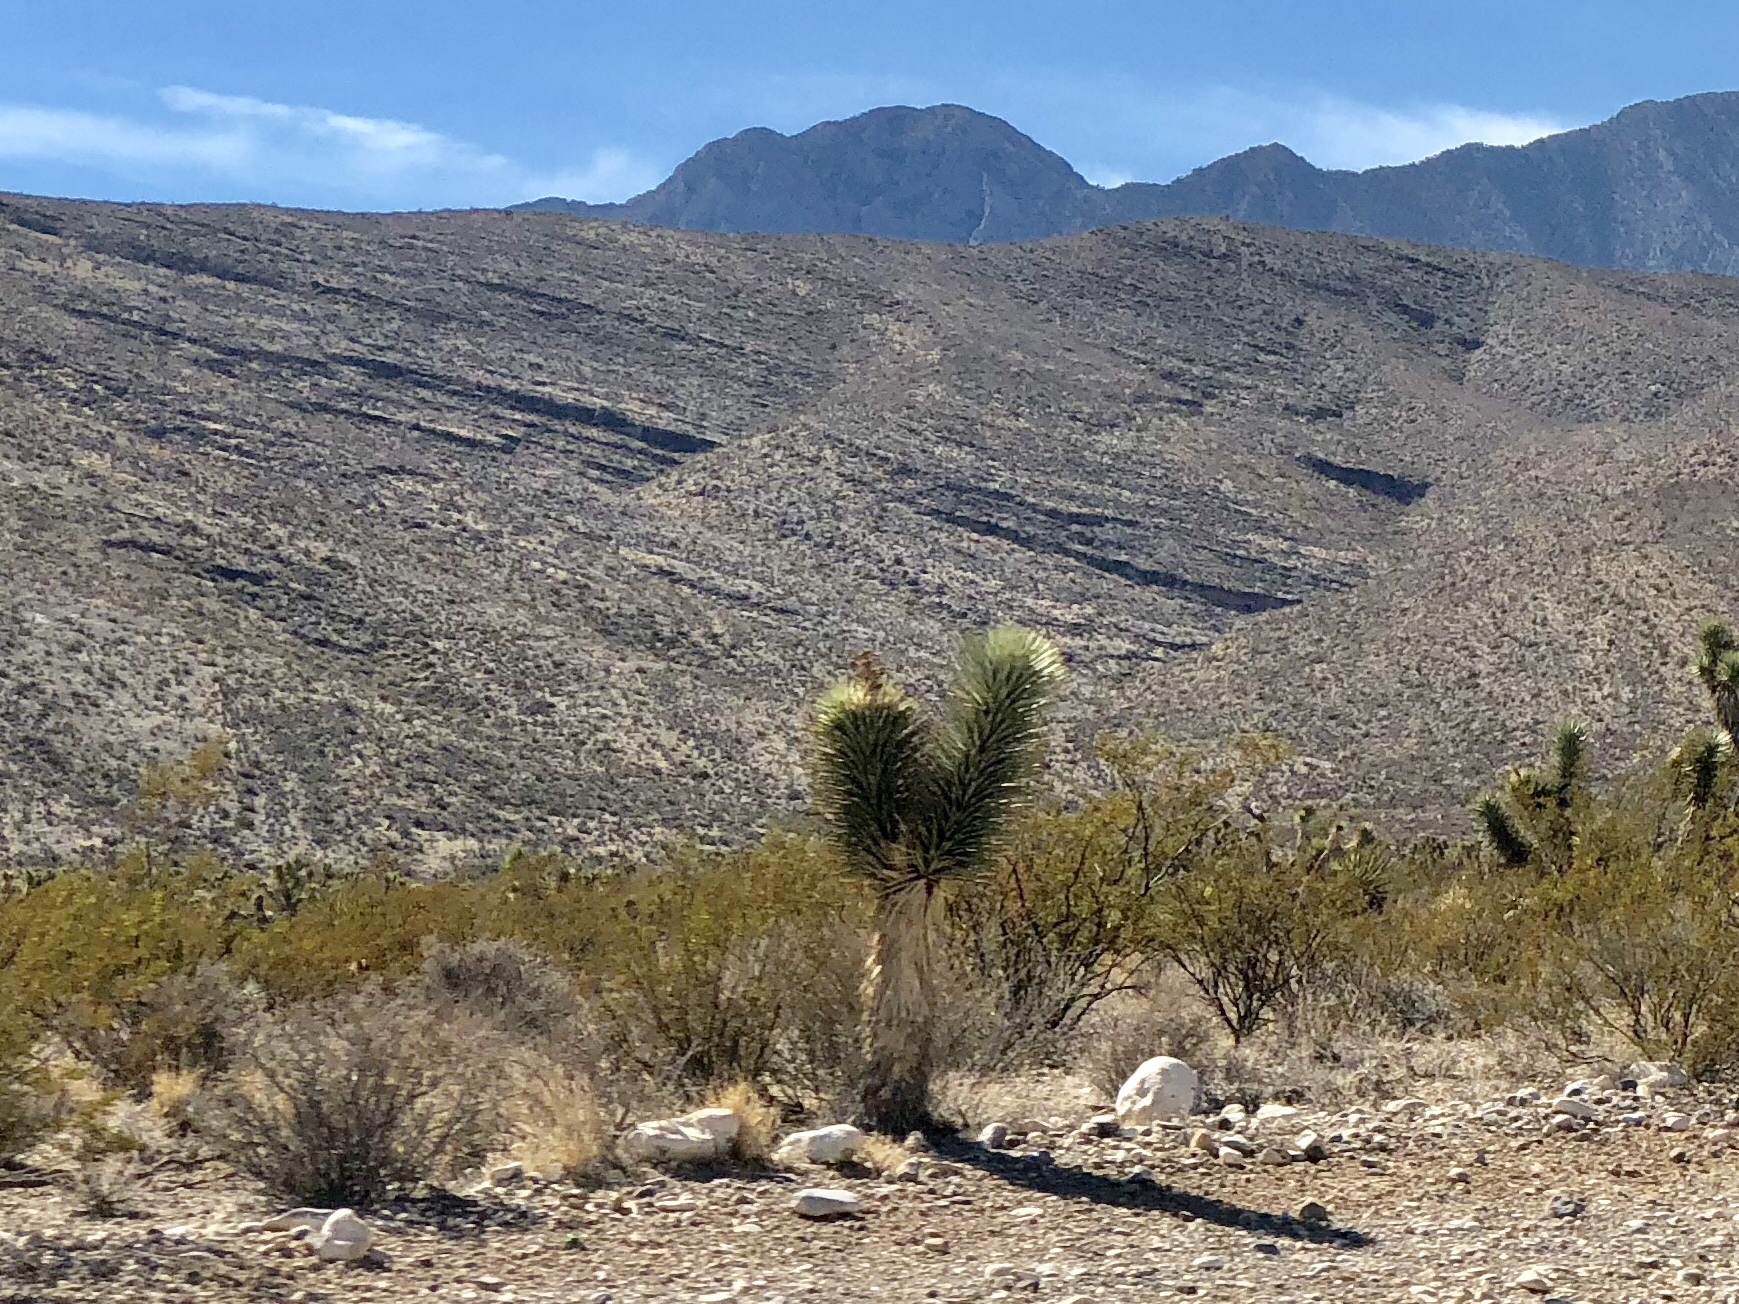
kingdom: Plantae
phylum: Tracheophyta
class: Liliopsida
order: Asparagales
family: Asparagaceae
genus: Yucca
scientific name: Yucca brevifolia
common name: Joshua tree
